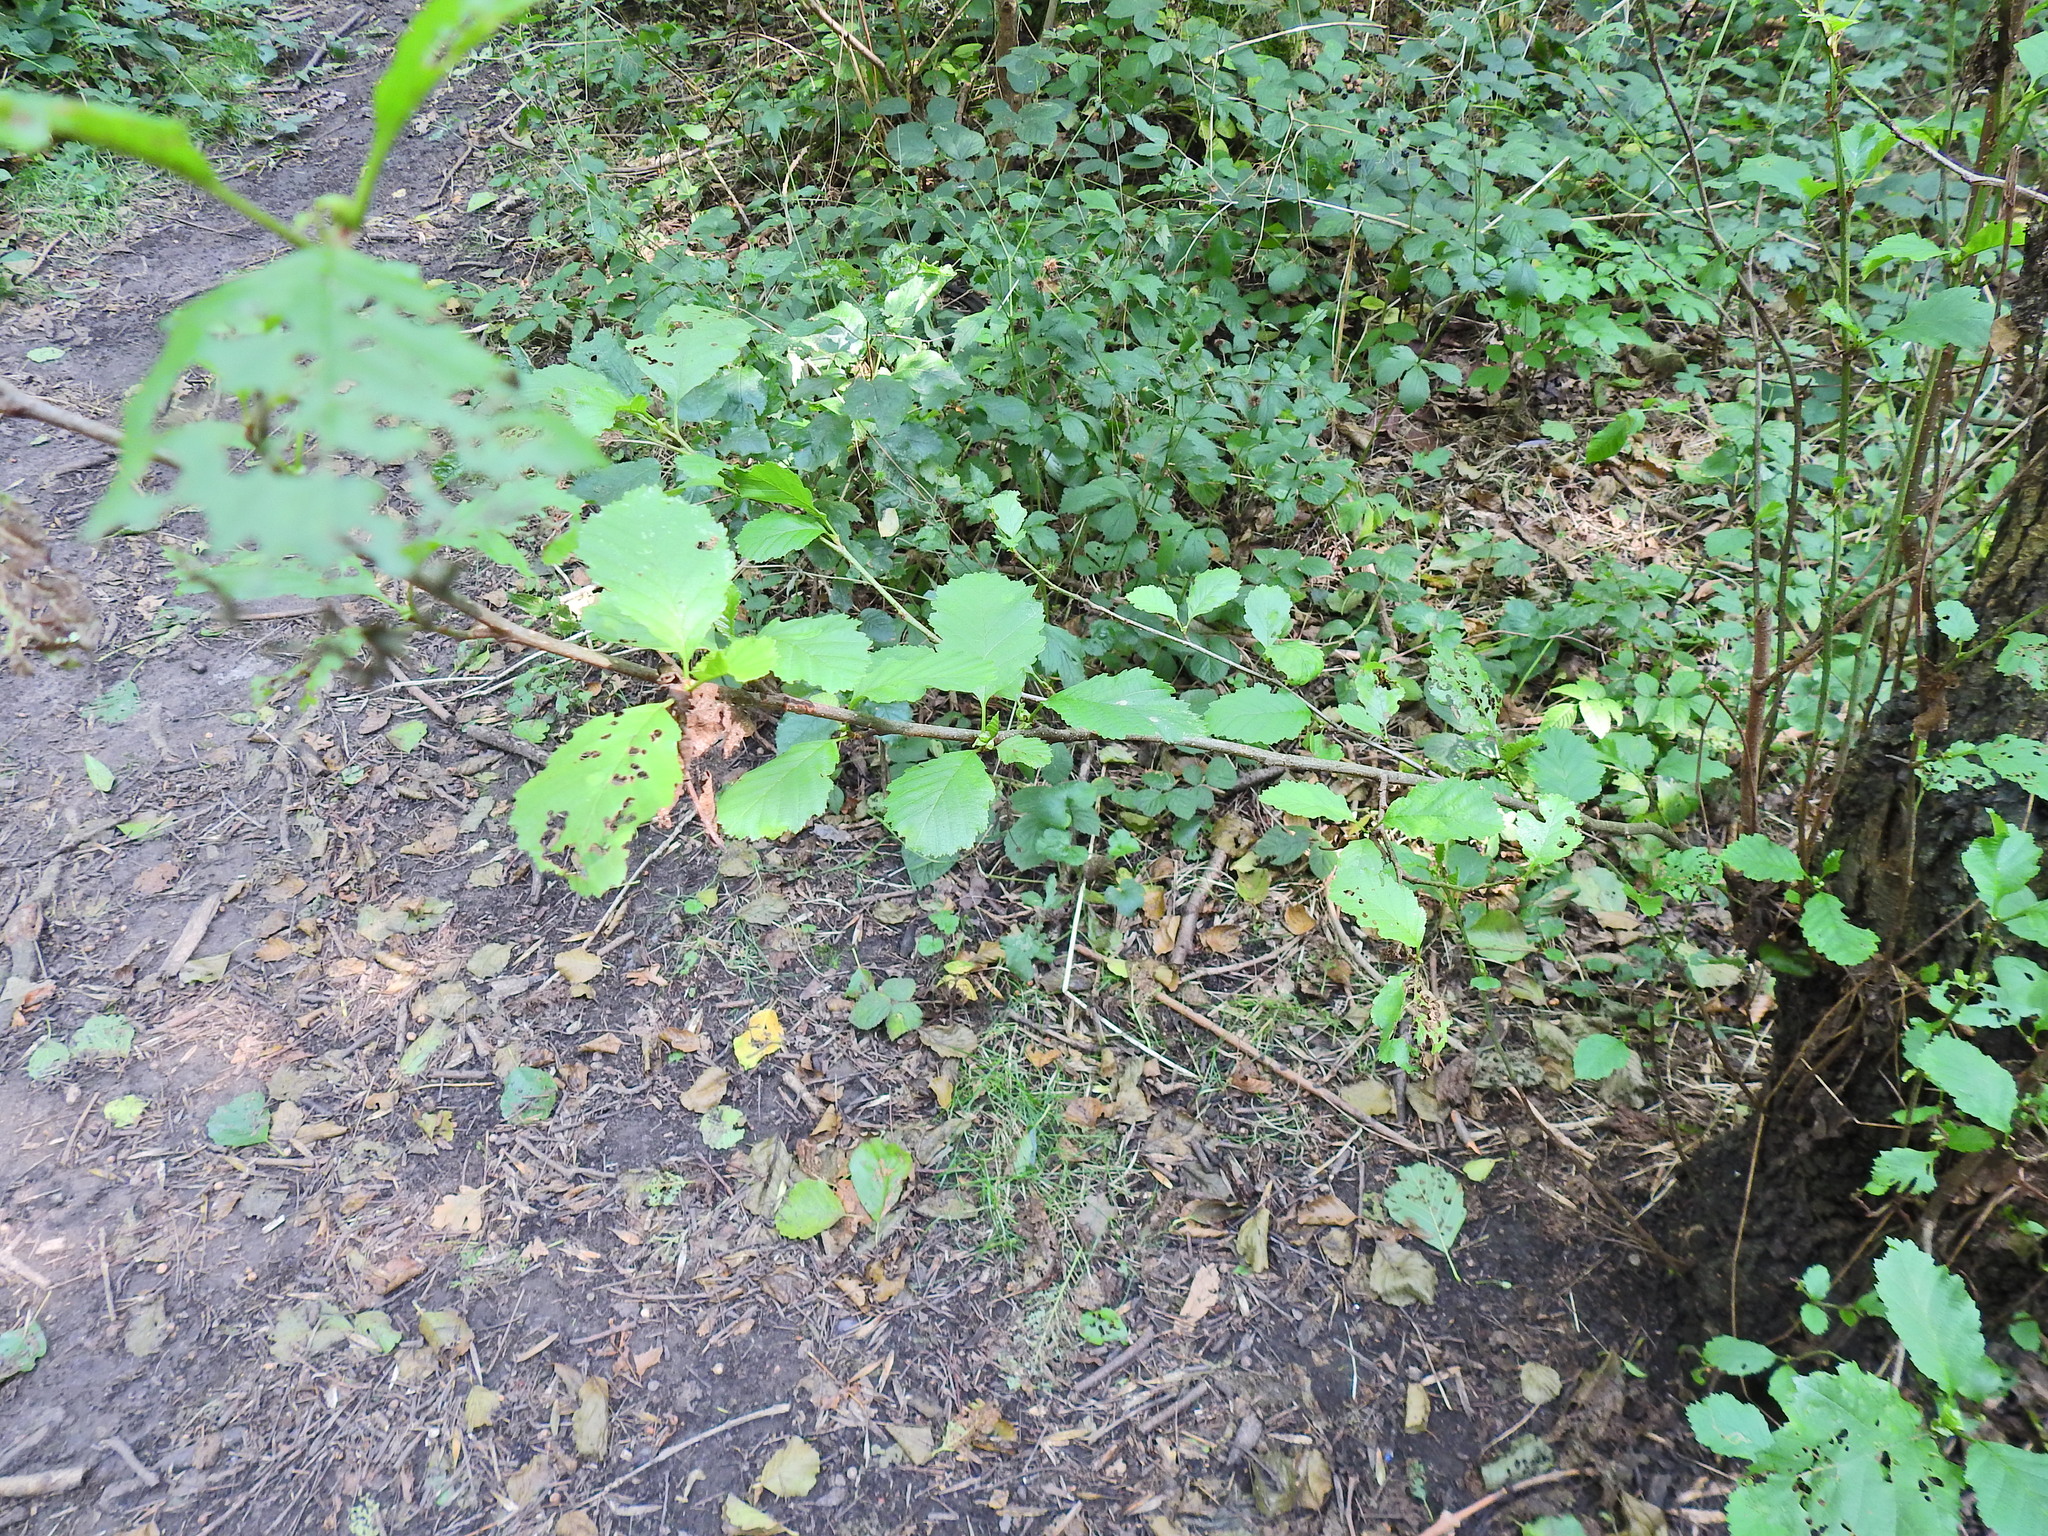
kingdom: Plantae
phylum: Tracheophyta
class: Magnoliopsida
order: Fagales
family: Betulaceae
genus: Alnus
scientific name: Alnus glutinosa
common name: Black alder
